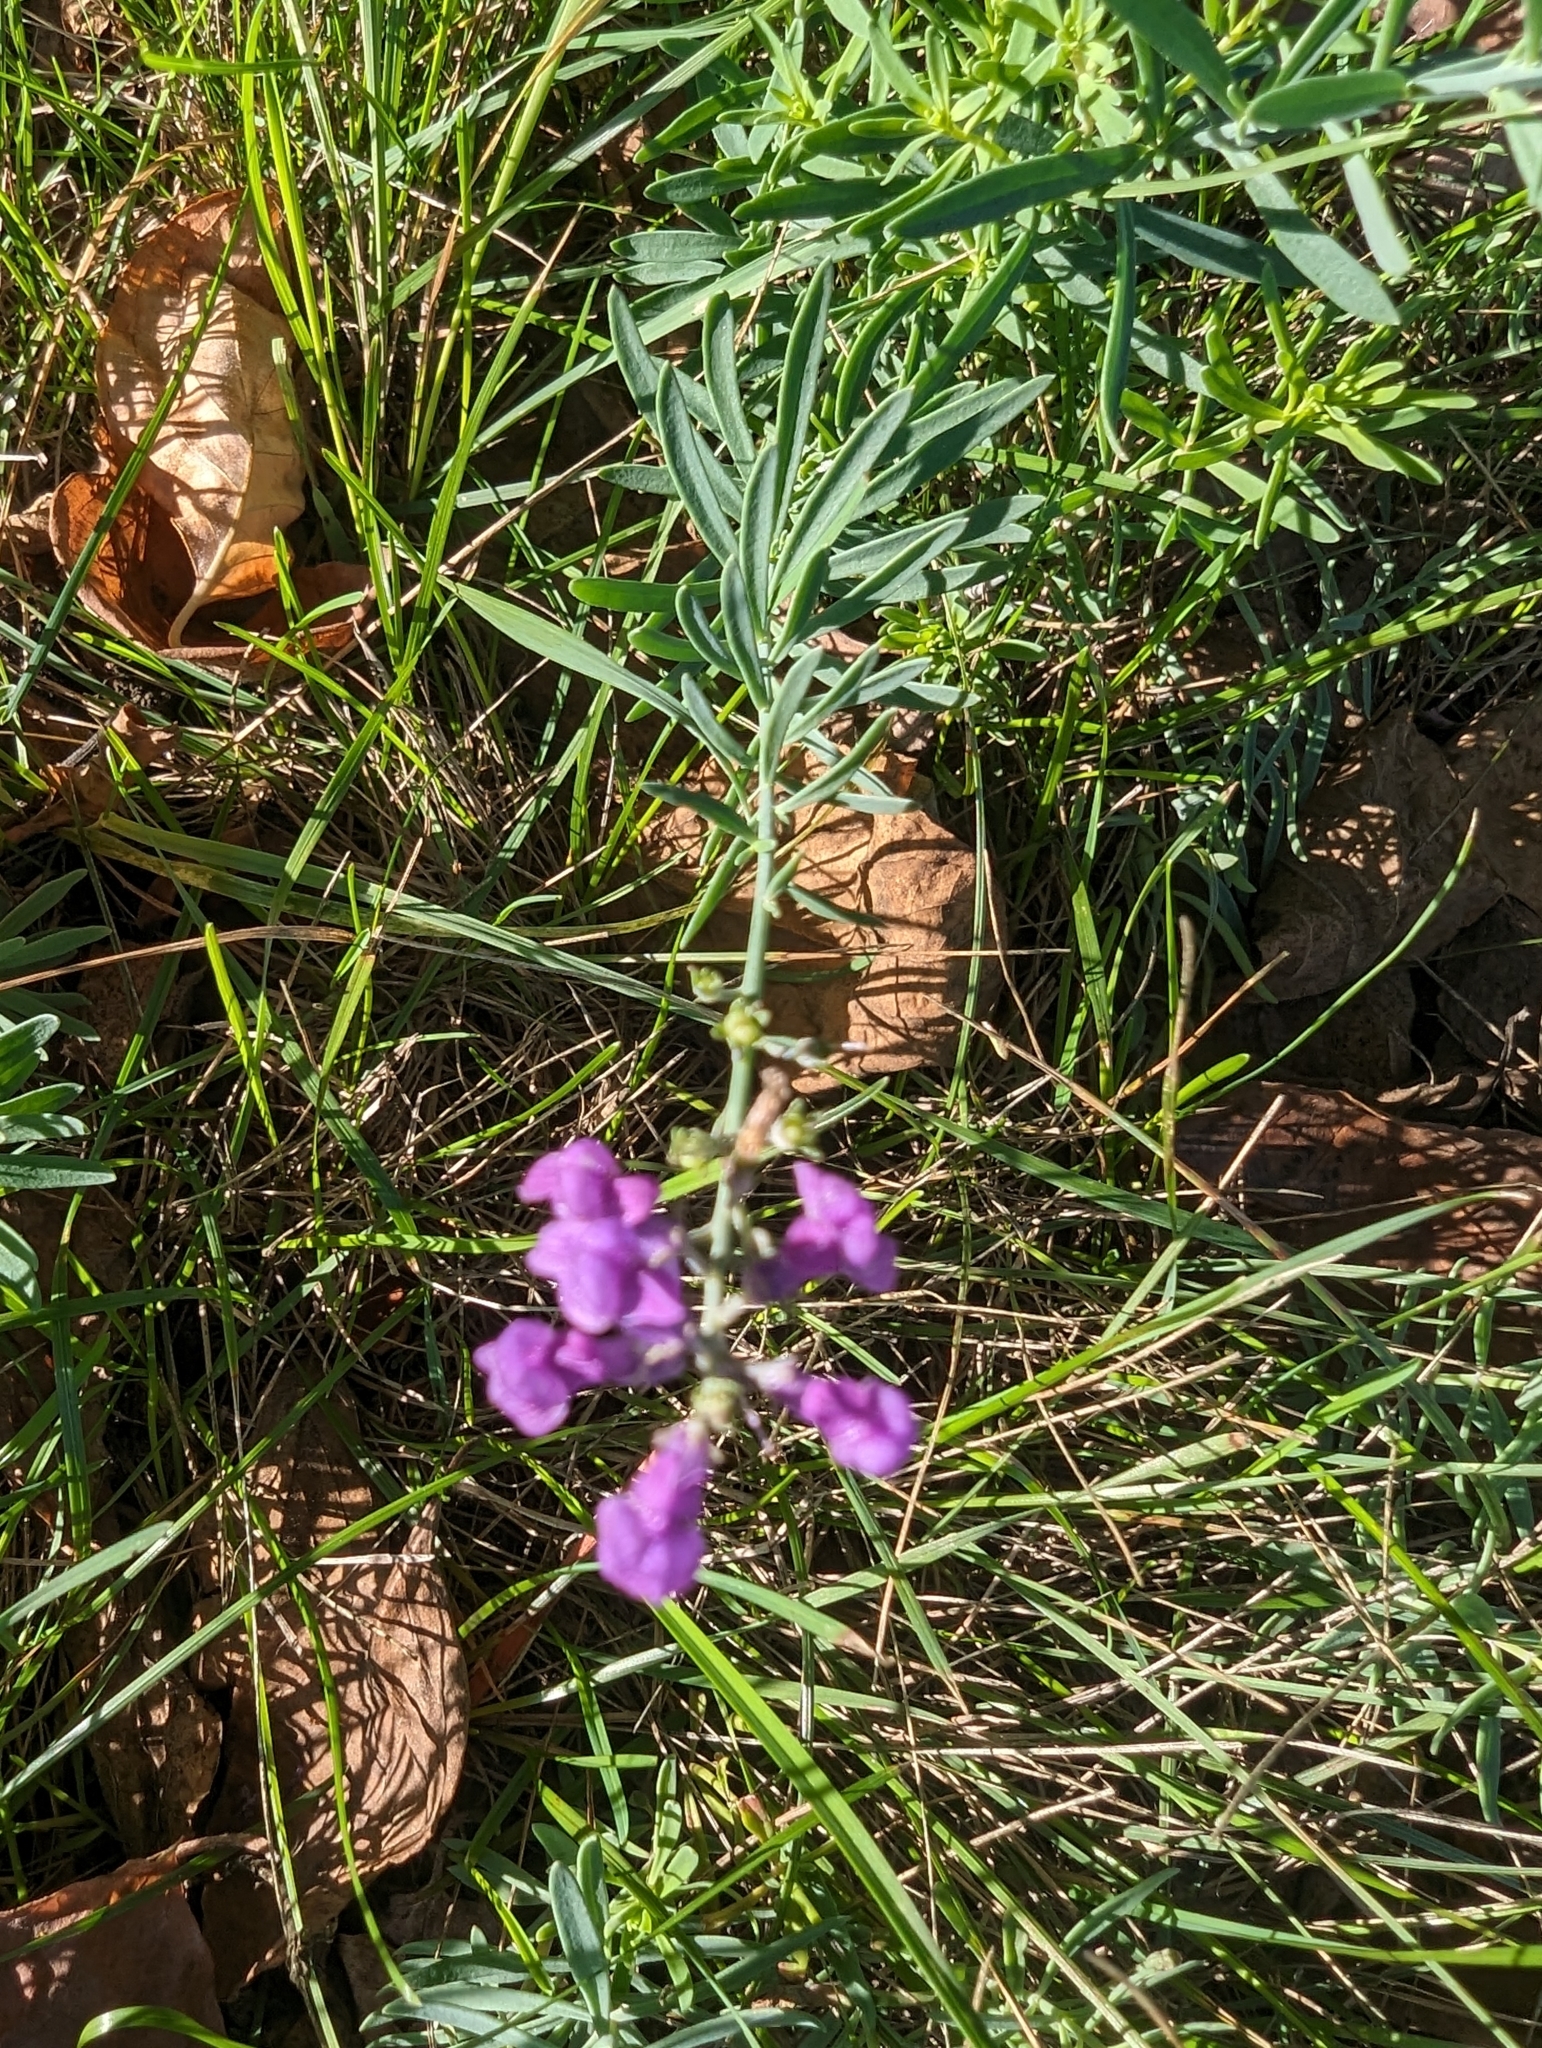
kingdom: Plantae
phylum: Tracheophyta
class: Magnoliopsida
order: Lamiales
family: Plantaginaceae
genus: Linaria
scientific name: Linaria purpurea
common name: Purple toadflax
